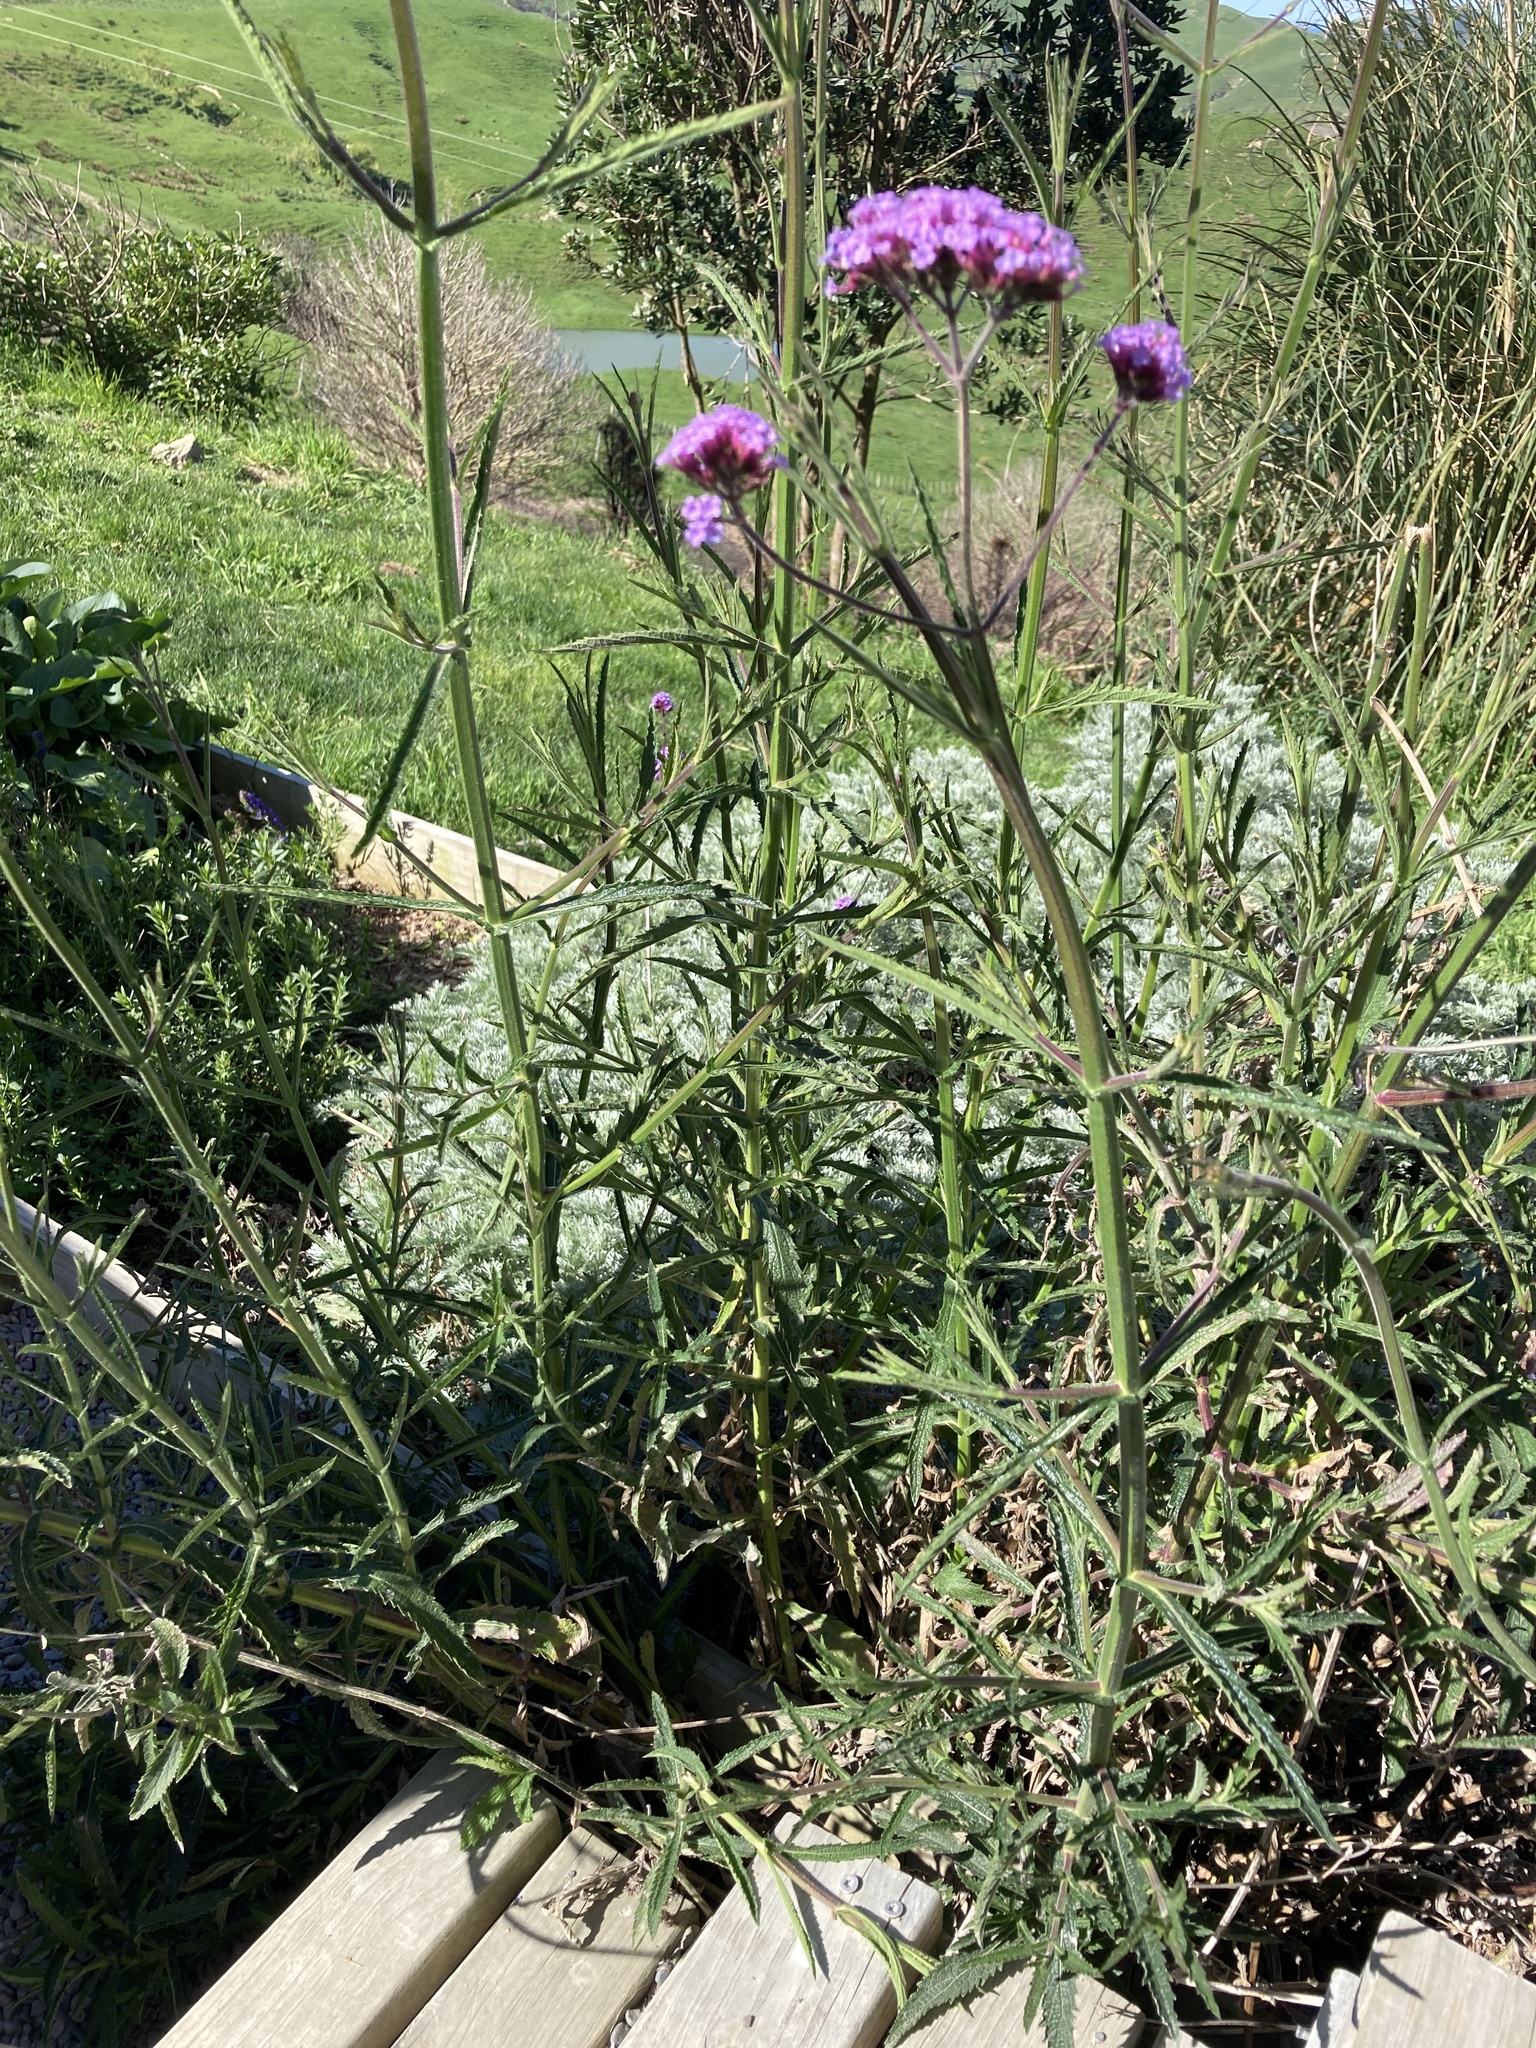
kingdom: Plantae
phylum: Tracheophyta
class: Magnoliopsida
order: Lamiales
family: Verbenaceae
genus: Verbena
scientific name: Verbena bonariensis
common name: Purpletop vervain
